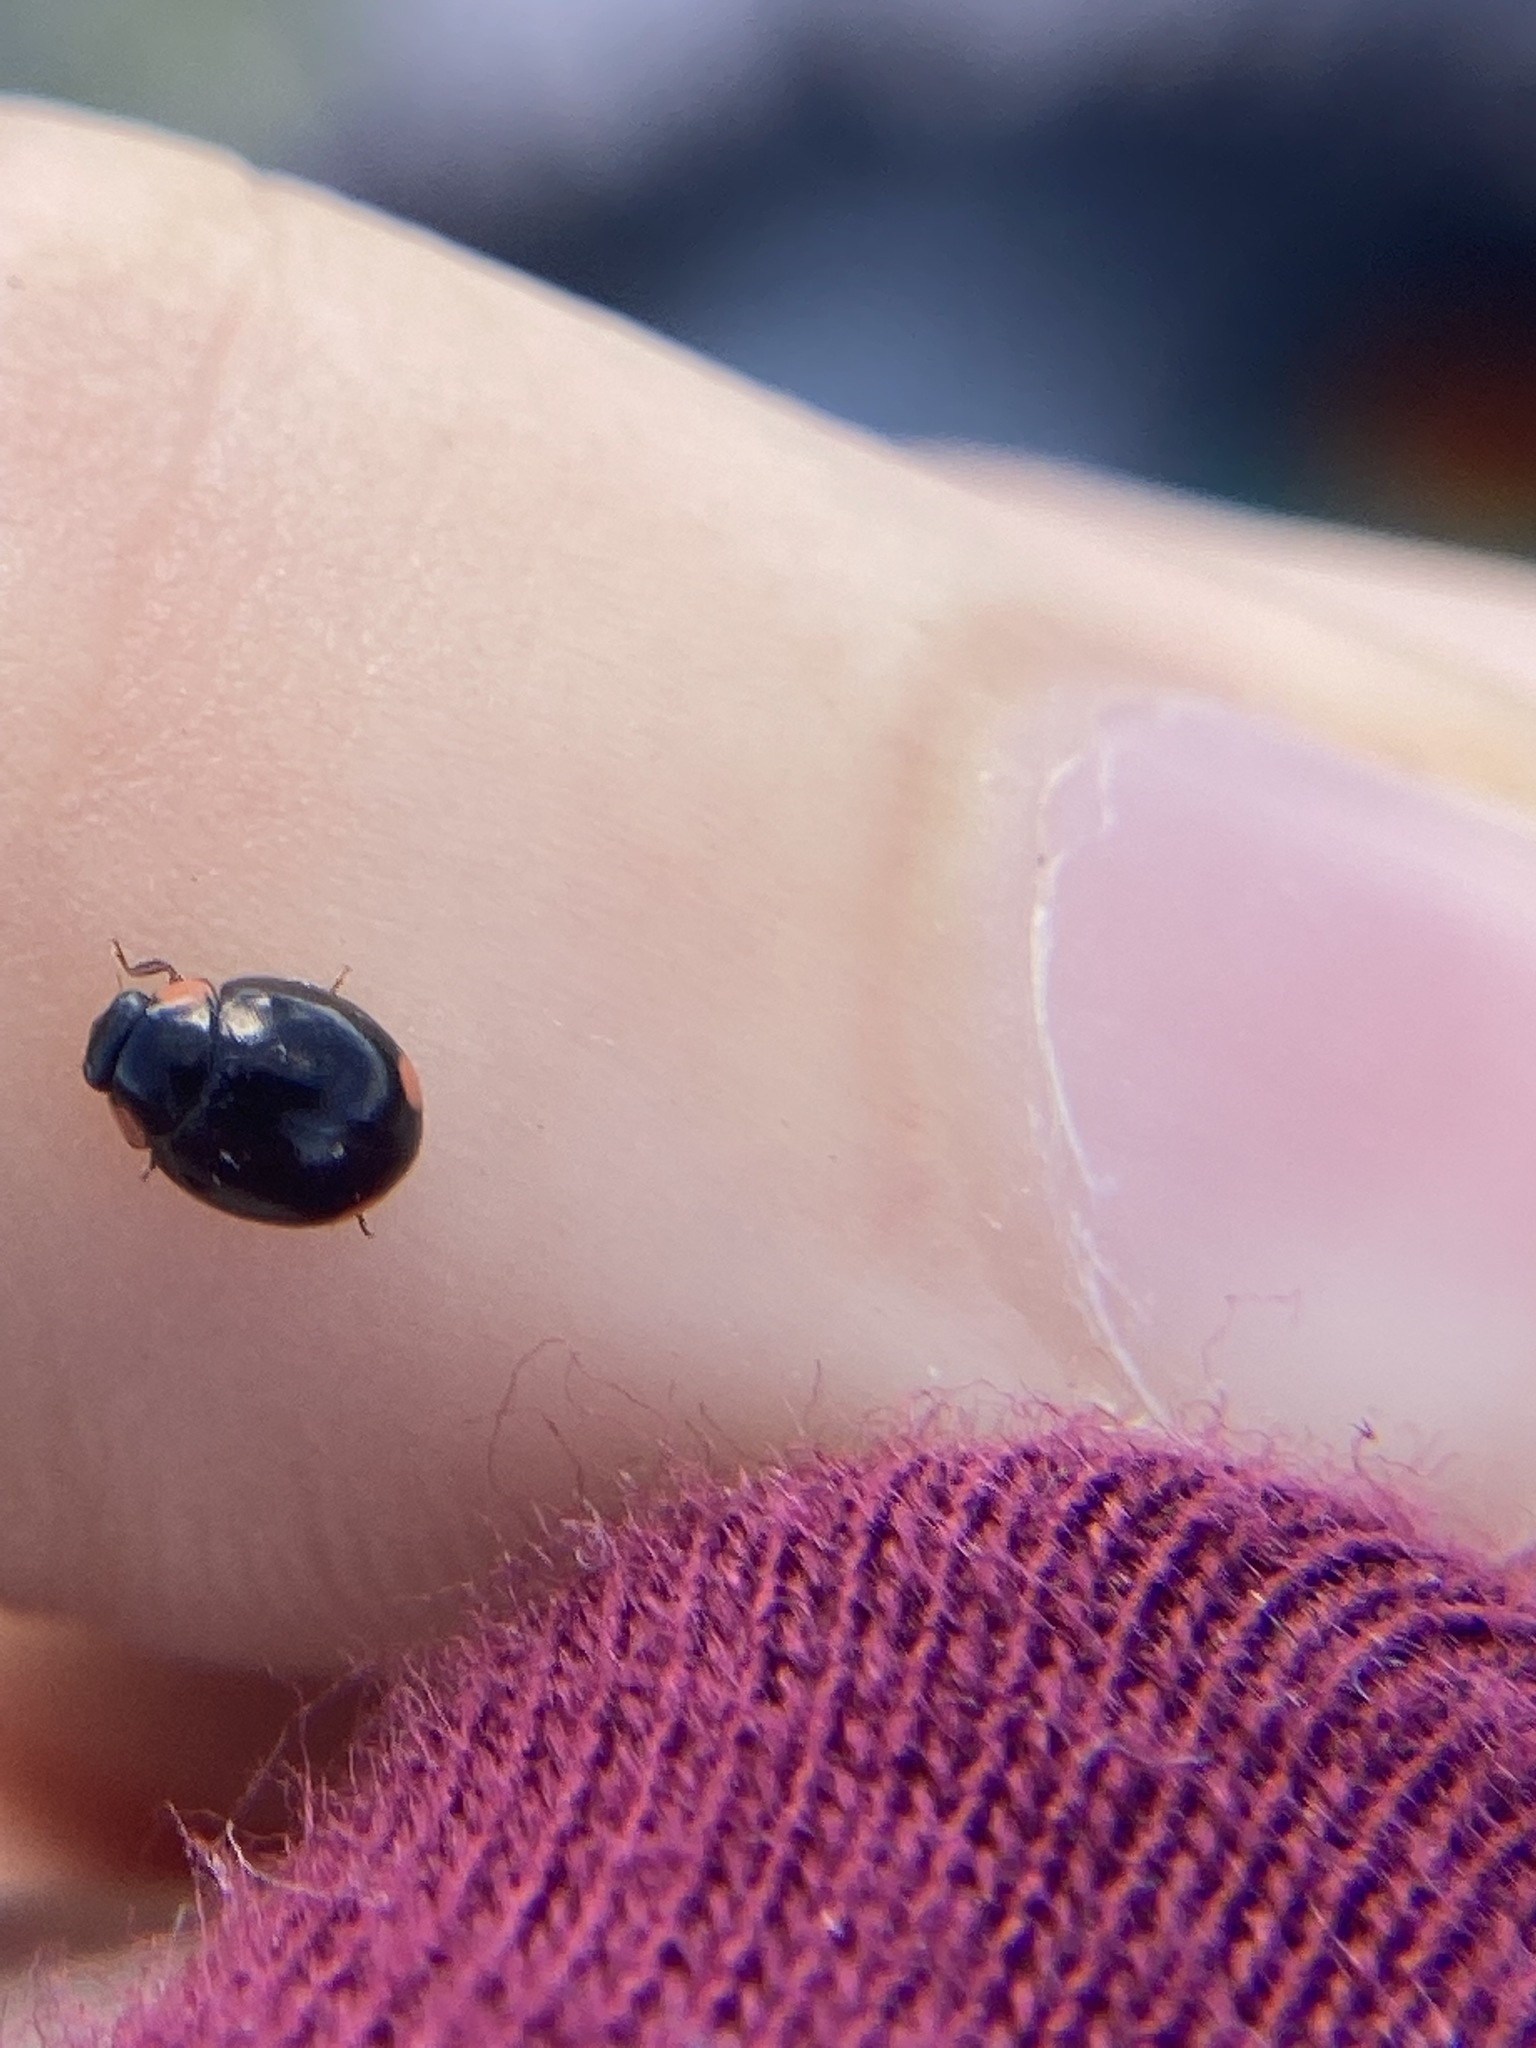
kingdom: Animalia
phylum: Arthropoda
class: Insecta
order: Coleoptera
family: Coccinellidae
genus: Hyperaspis
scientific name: Hyperaspis bigeminata
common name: Bigeminate sigil lady beetle
